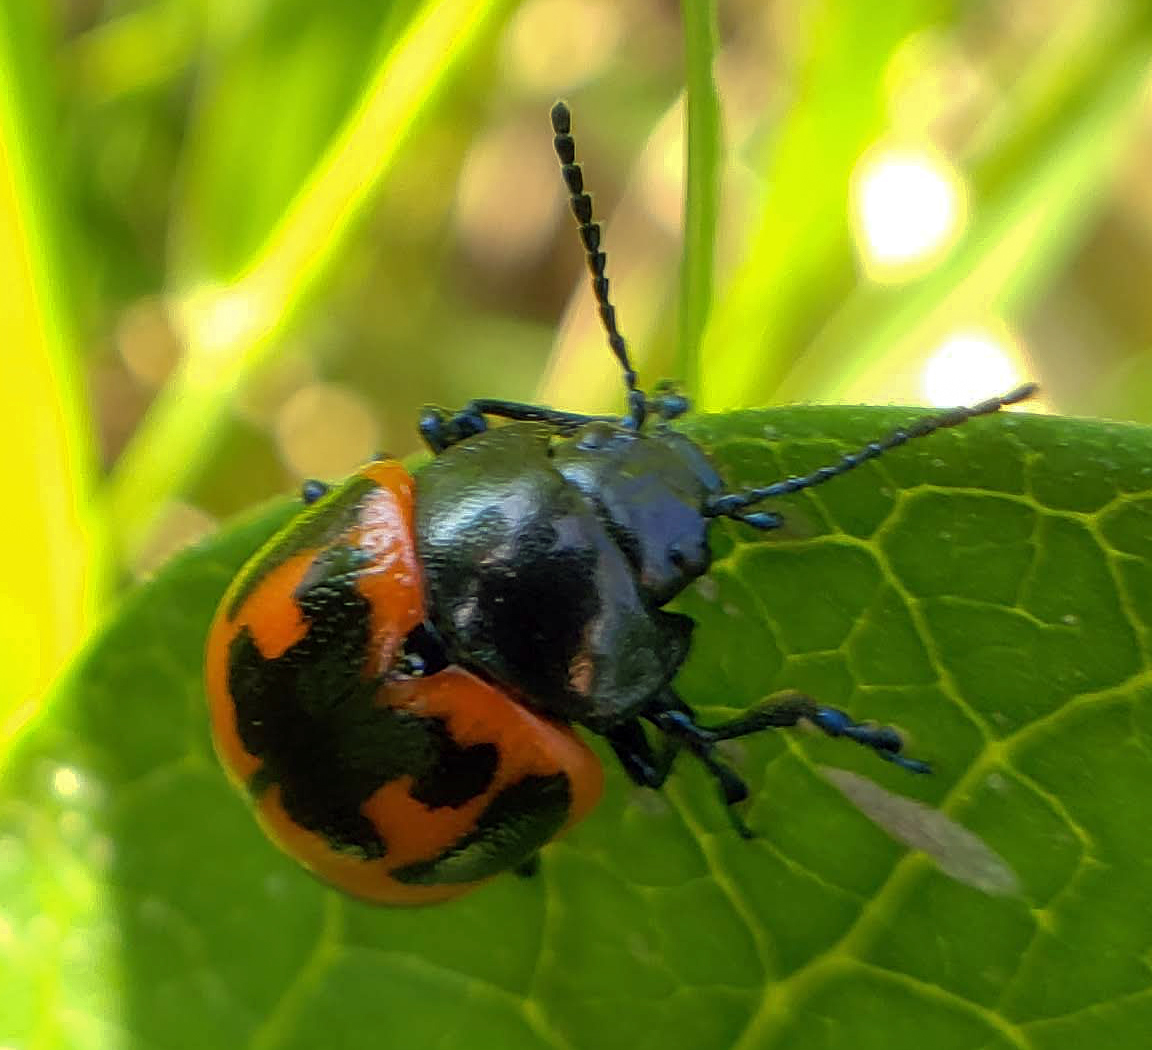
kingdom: Animalia
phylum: Arthropoda
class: Insecta
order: Coleoptera
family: Chrysomelidae
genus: Labidomera
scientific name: Labidomera clivicollis
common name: Swamp milkweed leaf beetle
